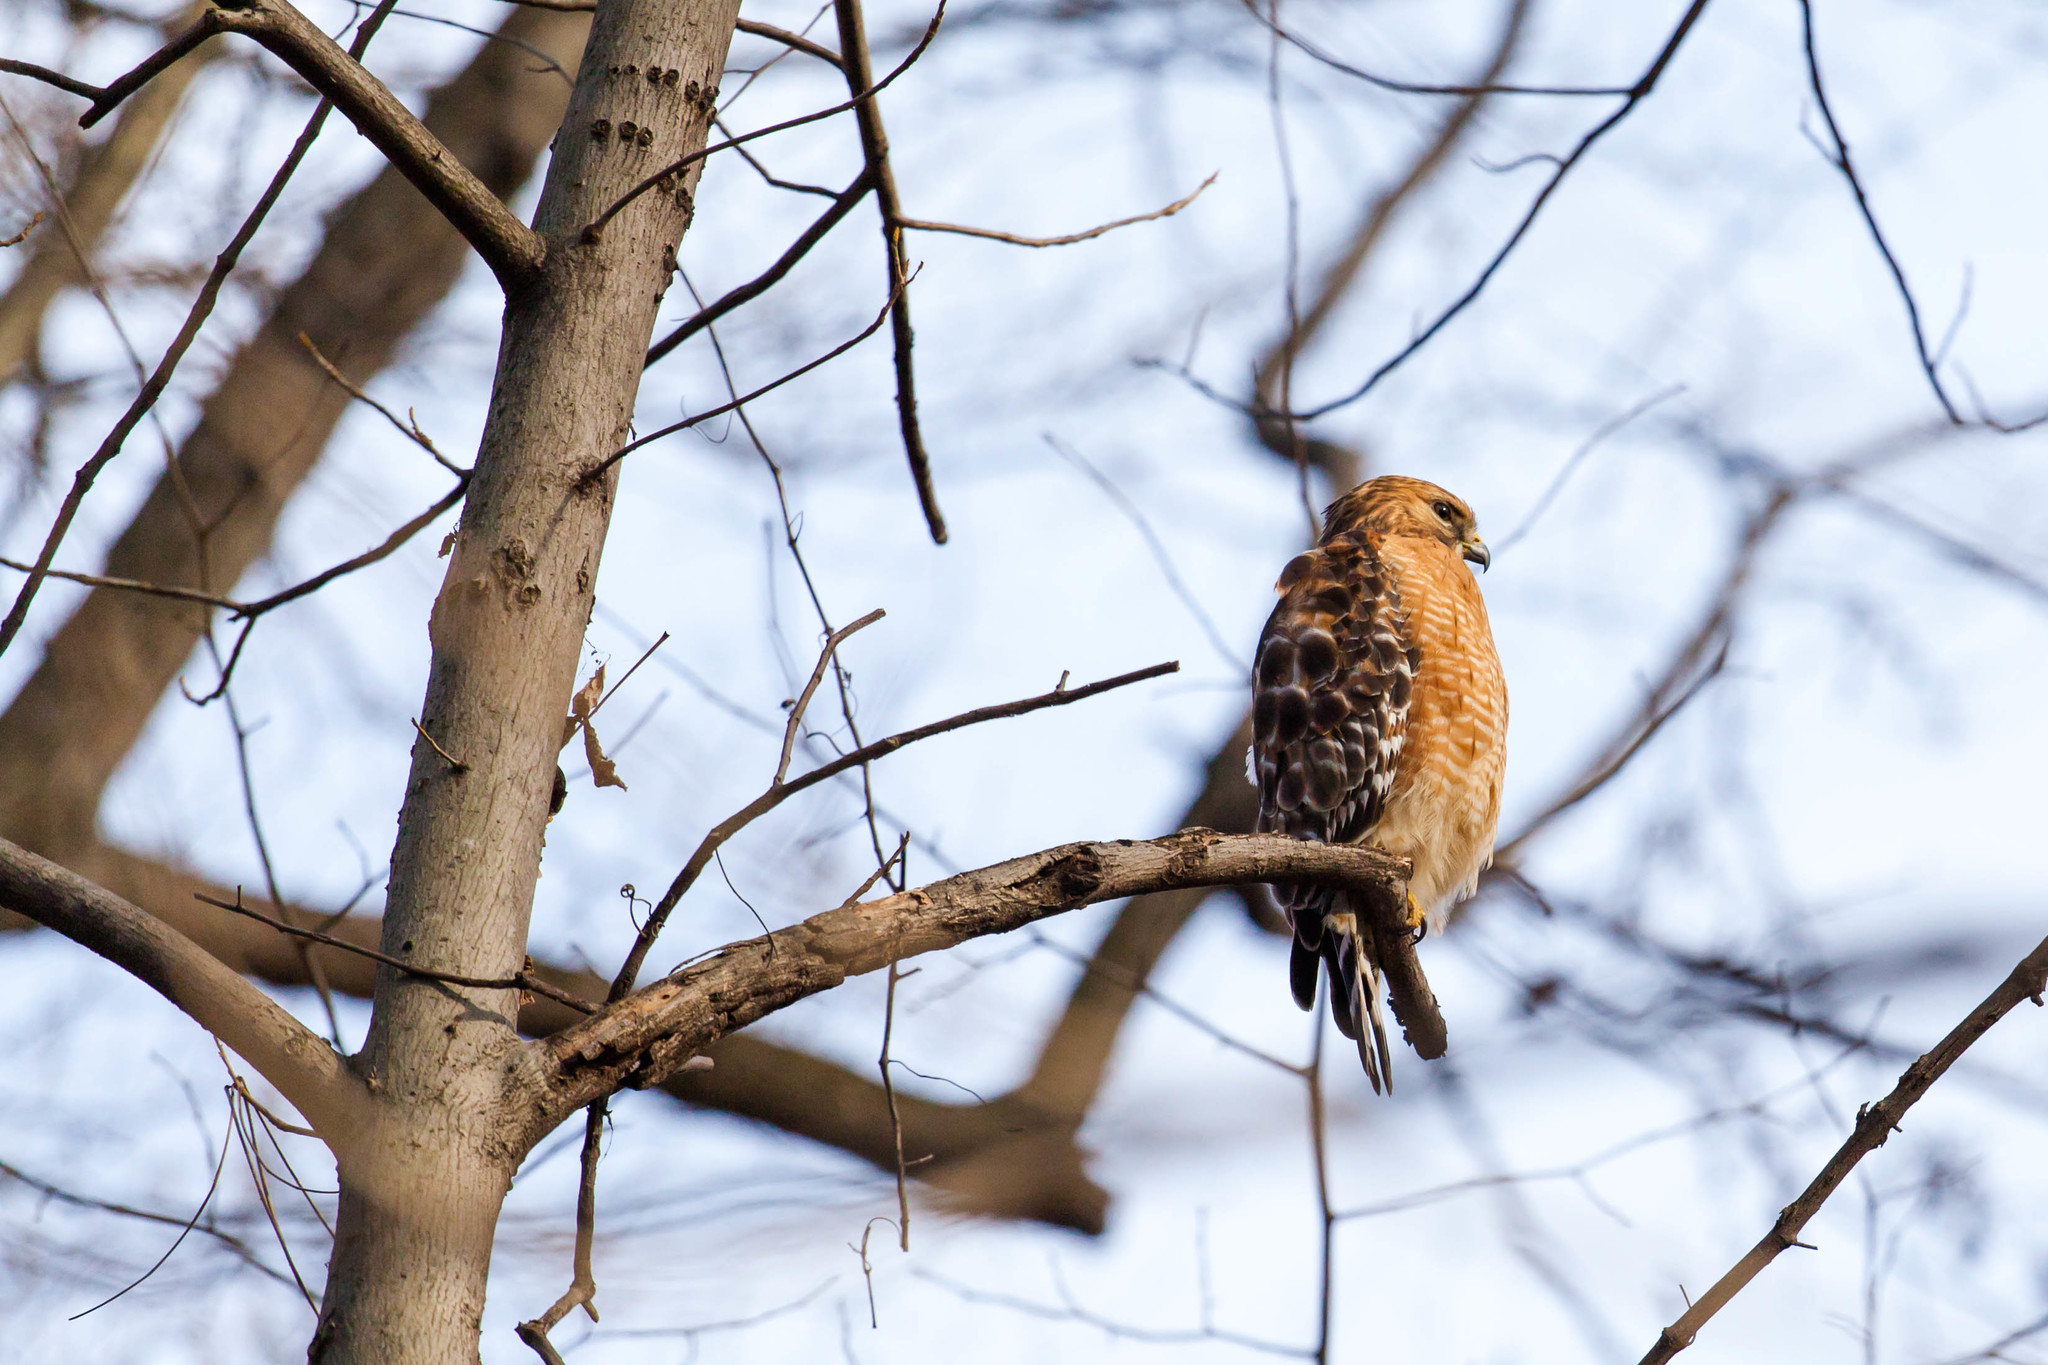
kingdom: Animalia
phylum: Chordata
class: Aves
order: Accipitriformes
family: Accipitridae
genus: Buteo
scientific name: Buteo lineatus
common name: Red-shouldered hawk
